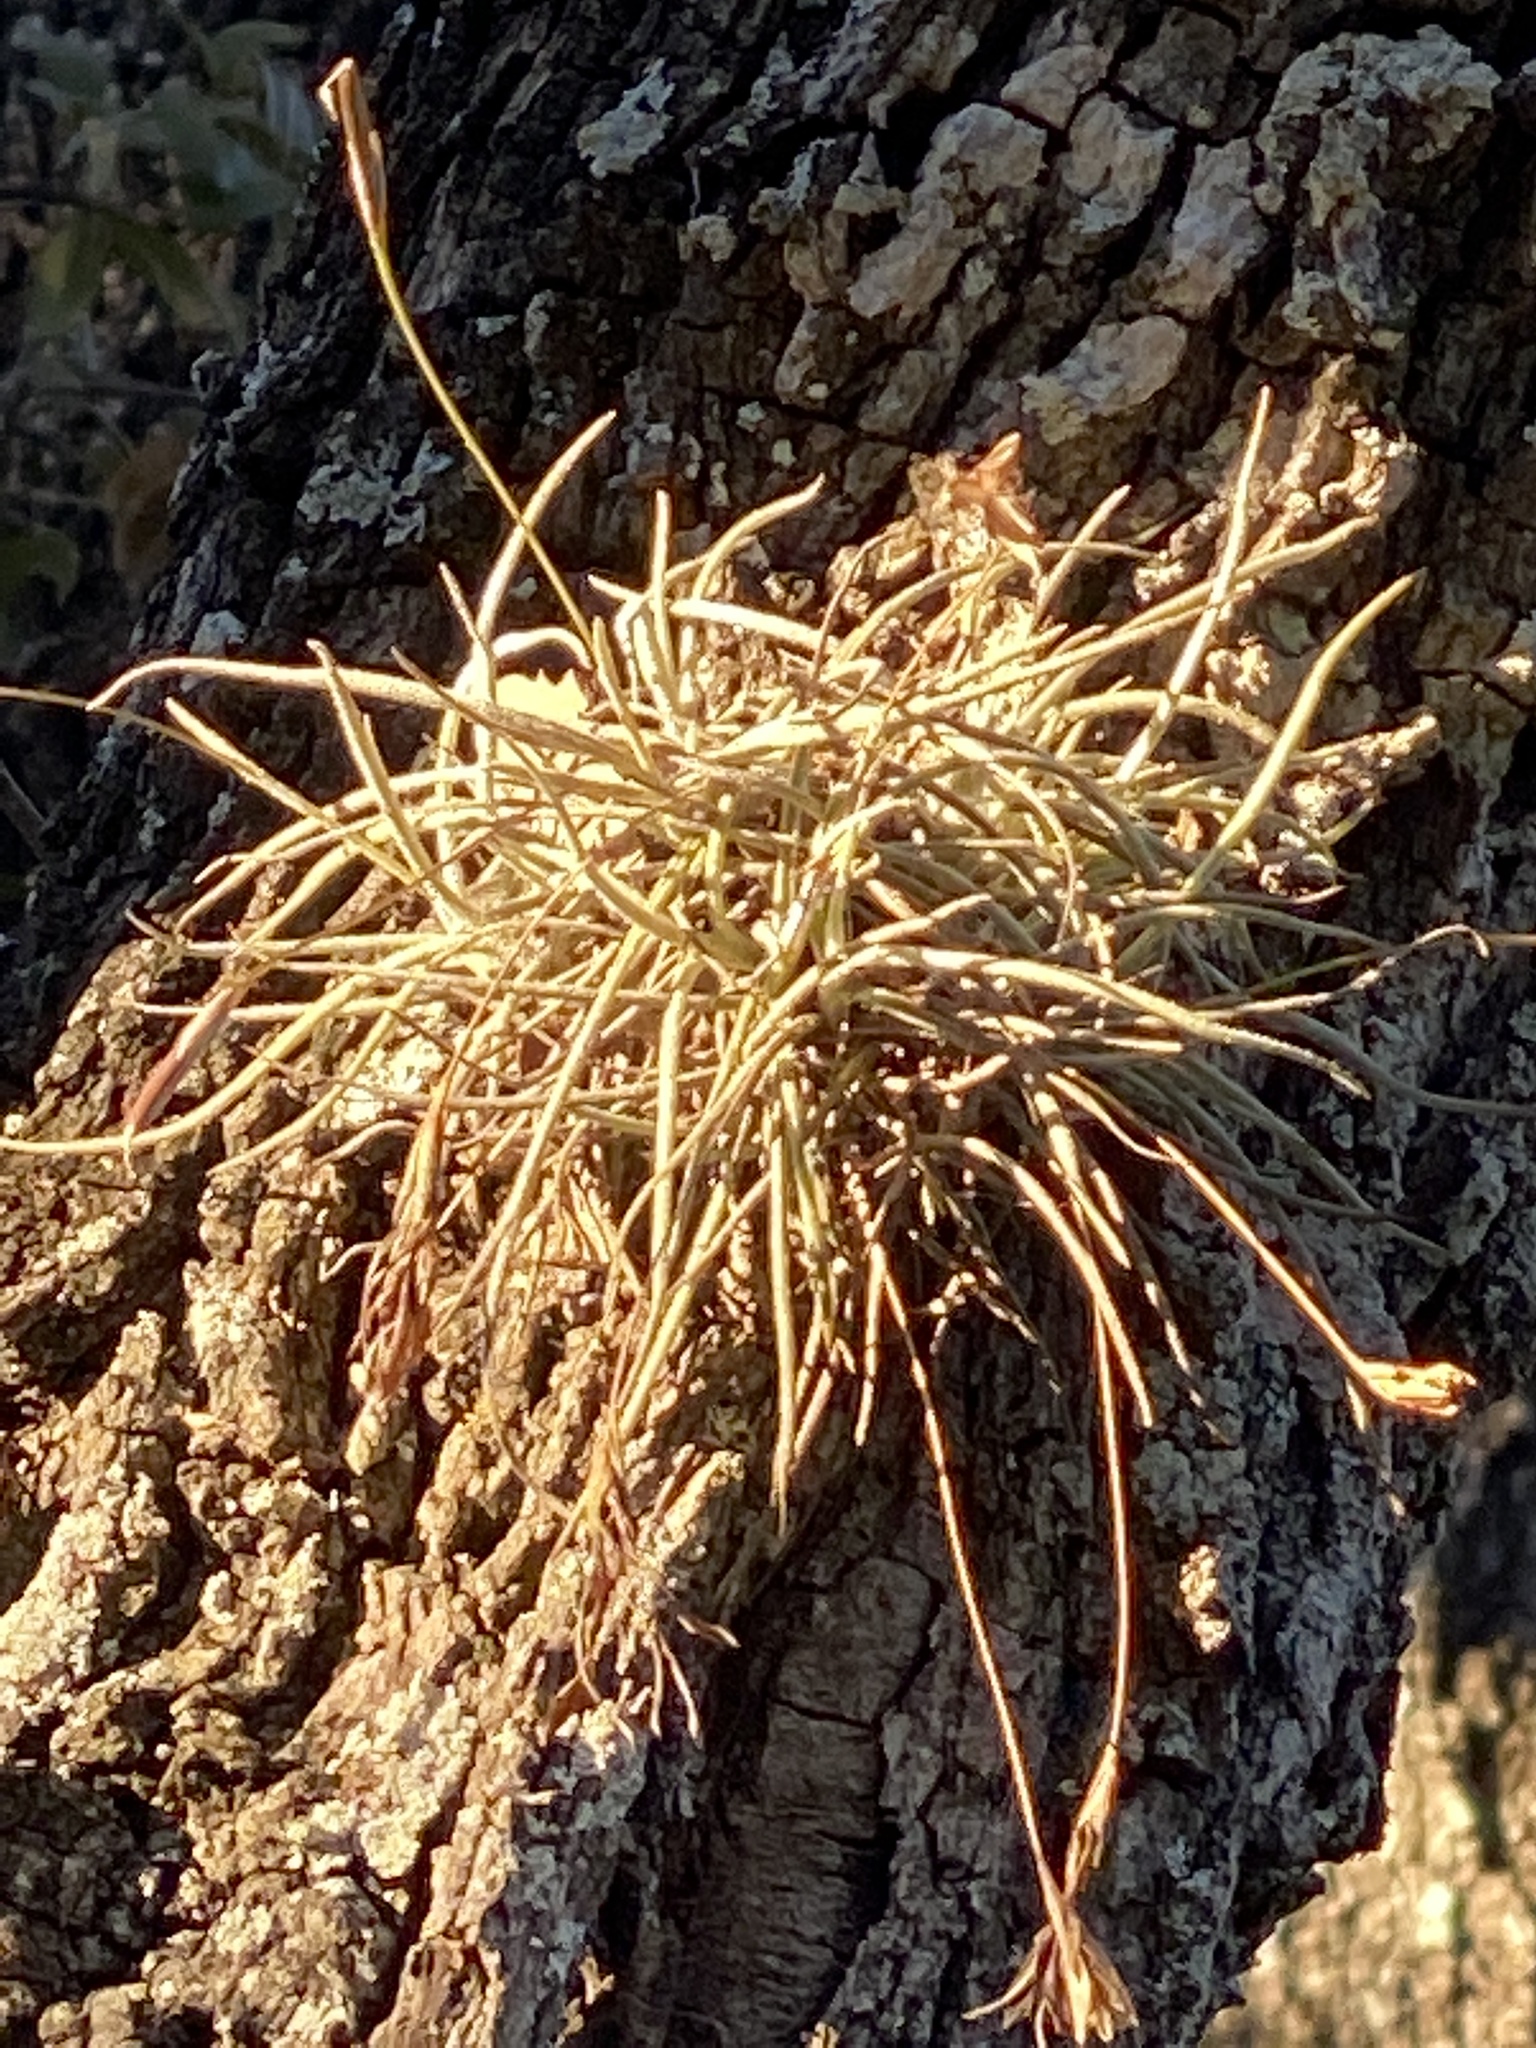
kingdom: Plantae
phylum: Tracheophyta
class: Liliopsida
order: Poales
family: Bromeliaceae
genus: Tillandsia
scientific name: Tillandsia recurvata
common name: Small ballmoss
